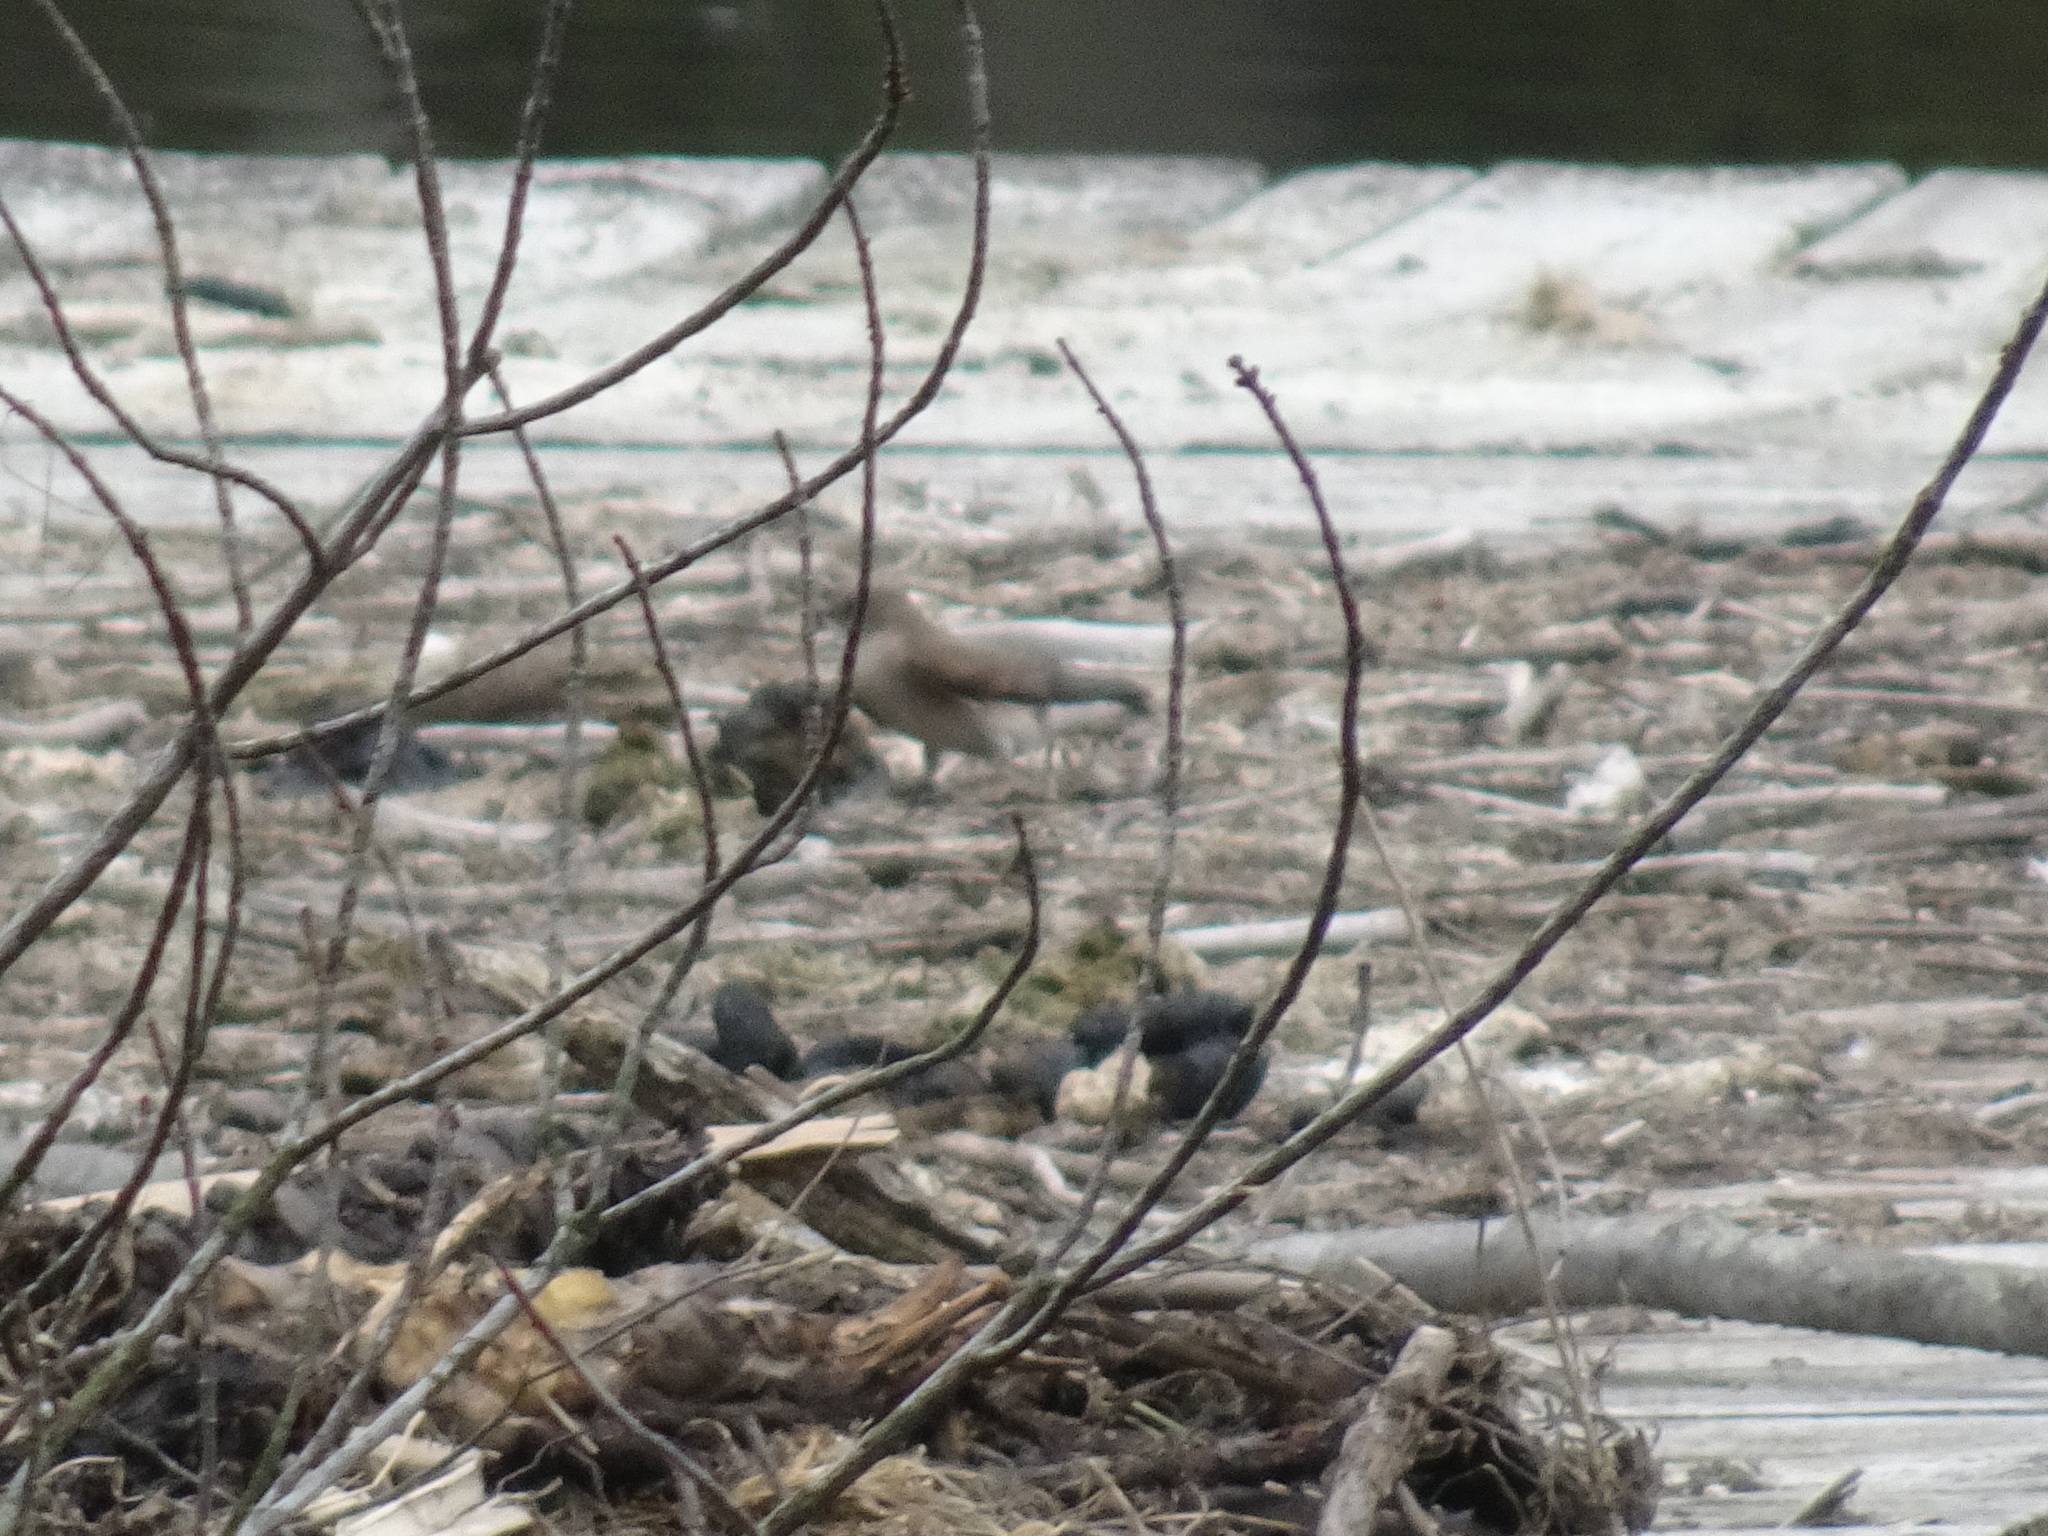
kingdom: Animalia
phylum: Chordata
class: Aves
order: Passeriformes
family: Hirundinidae
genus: Stelgidopteryx
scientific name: Stelgidopteryx serripennis
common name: Northern rough-winged swallow
